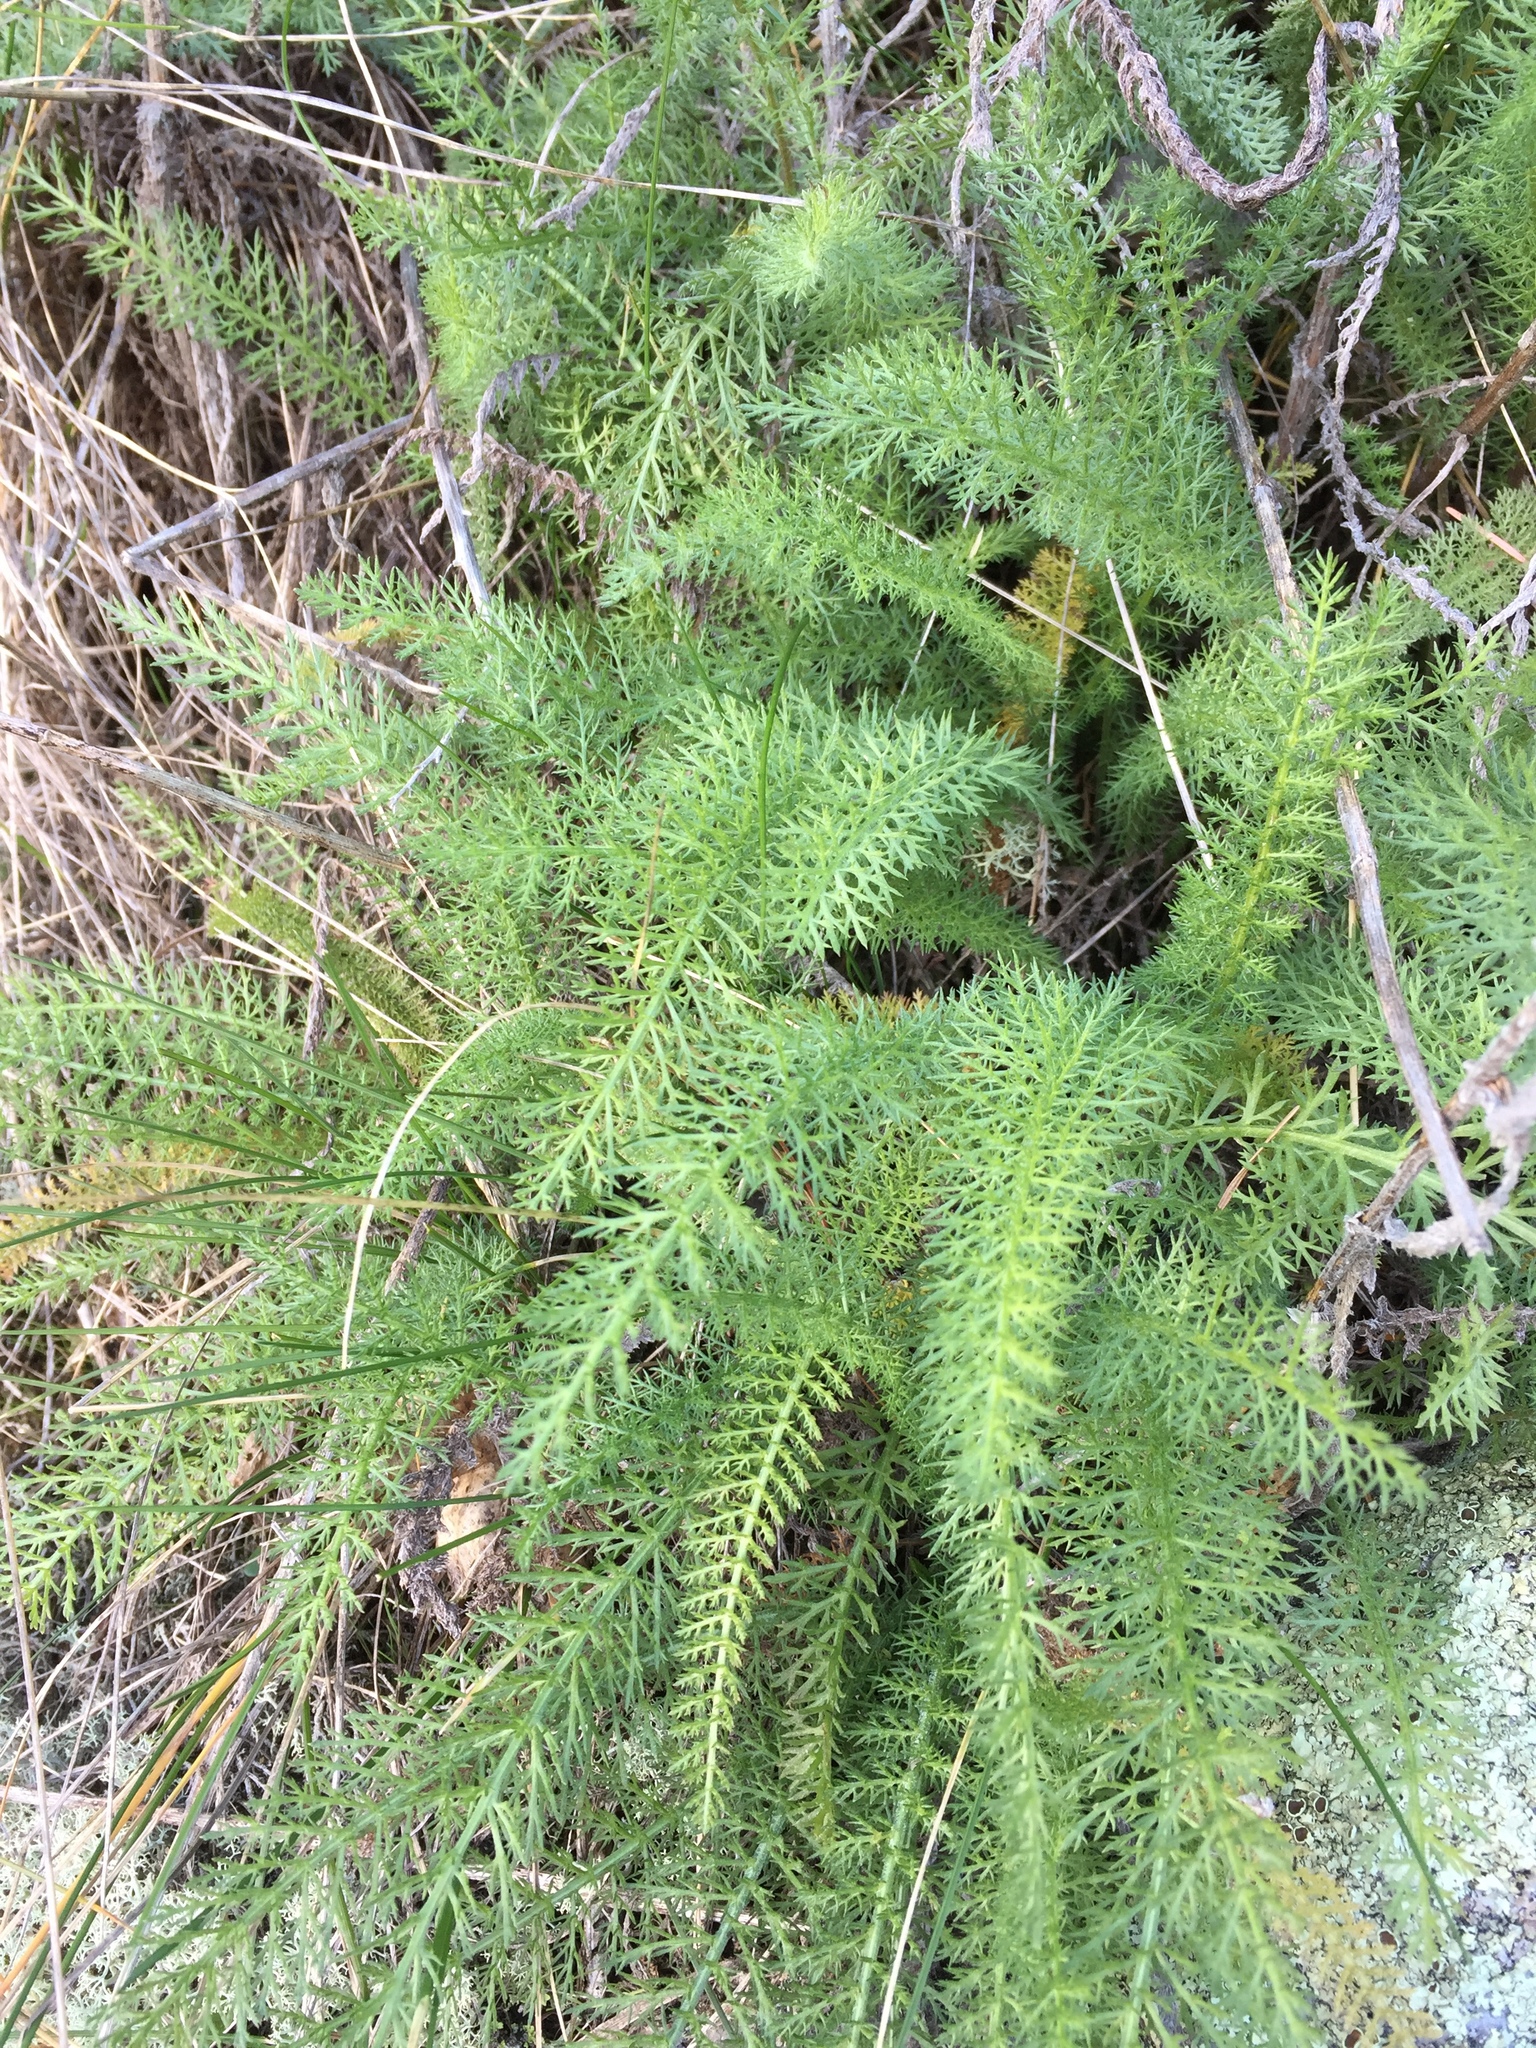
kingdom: Plantae
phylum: Tracheophyta
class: Magnoliopsida
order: Asterales
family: Asteraceae
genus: Achillea
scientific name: Achillea millefolium
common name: Yarrow
